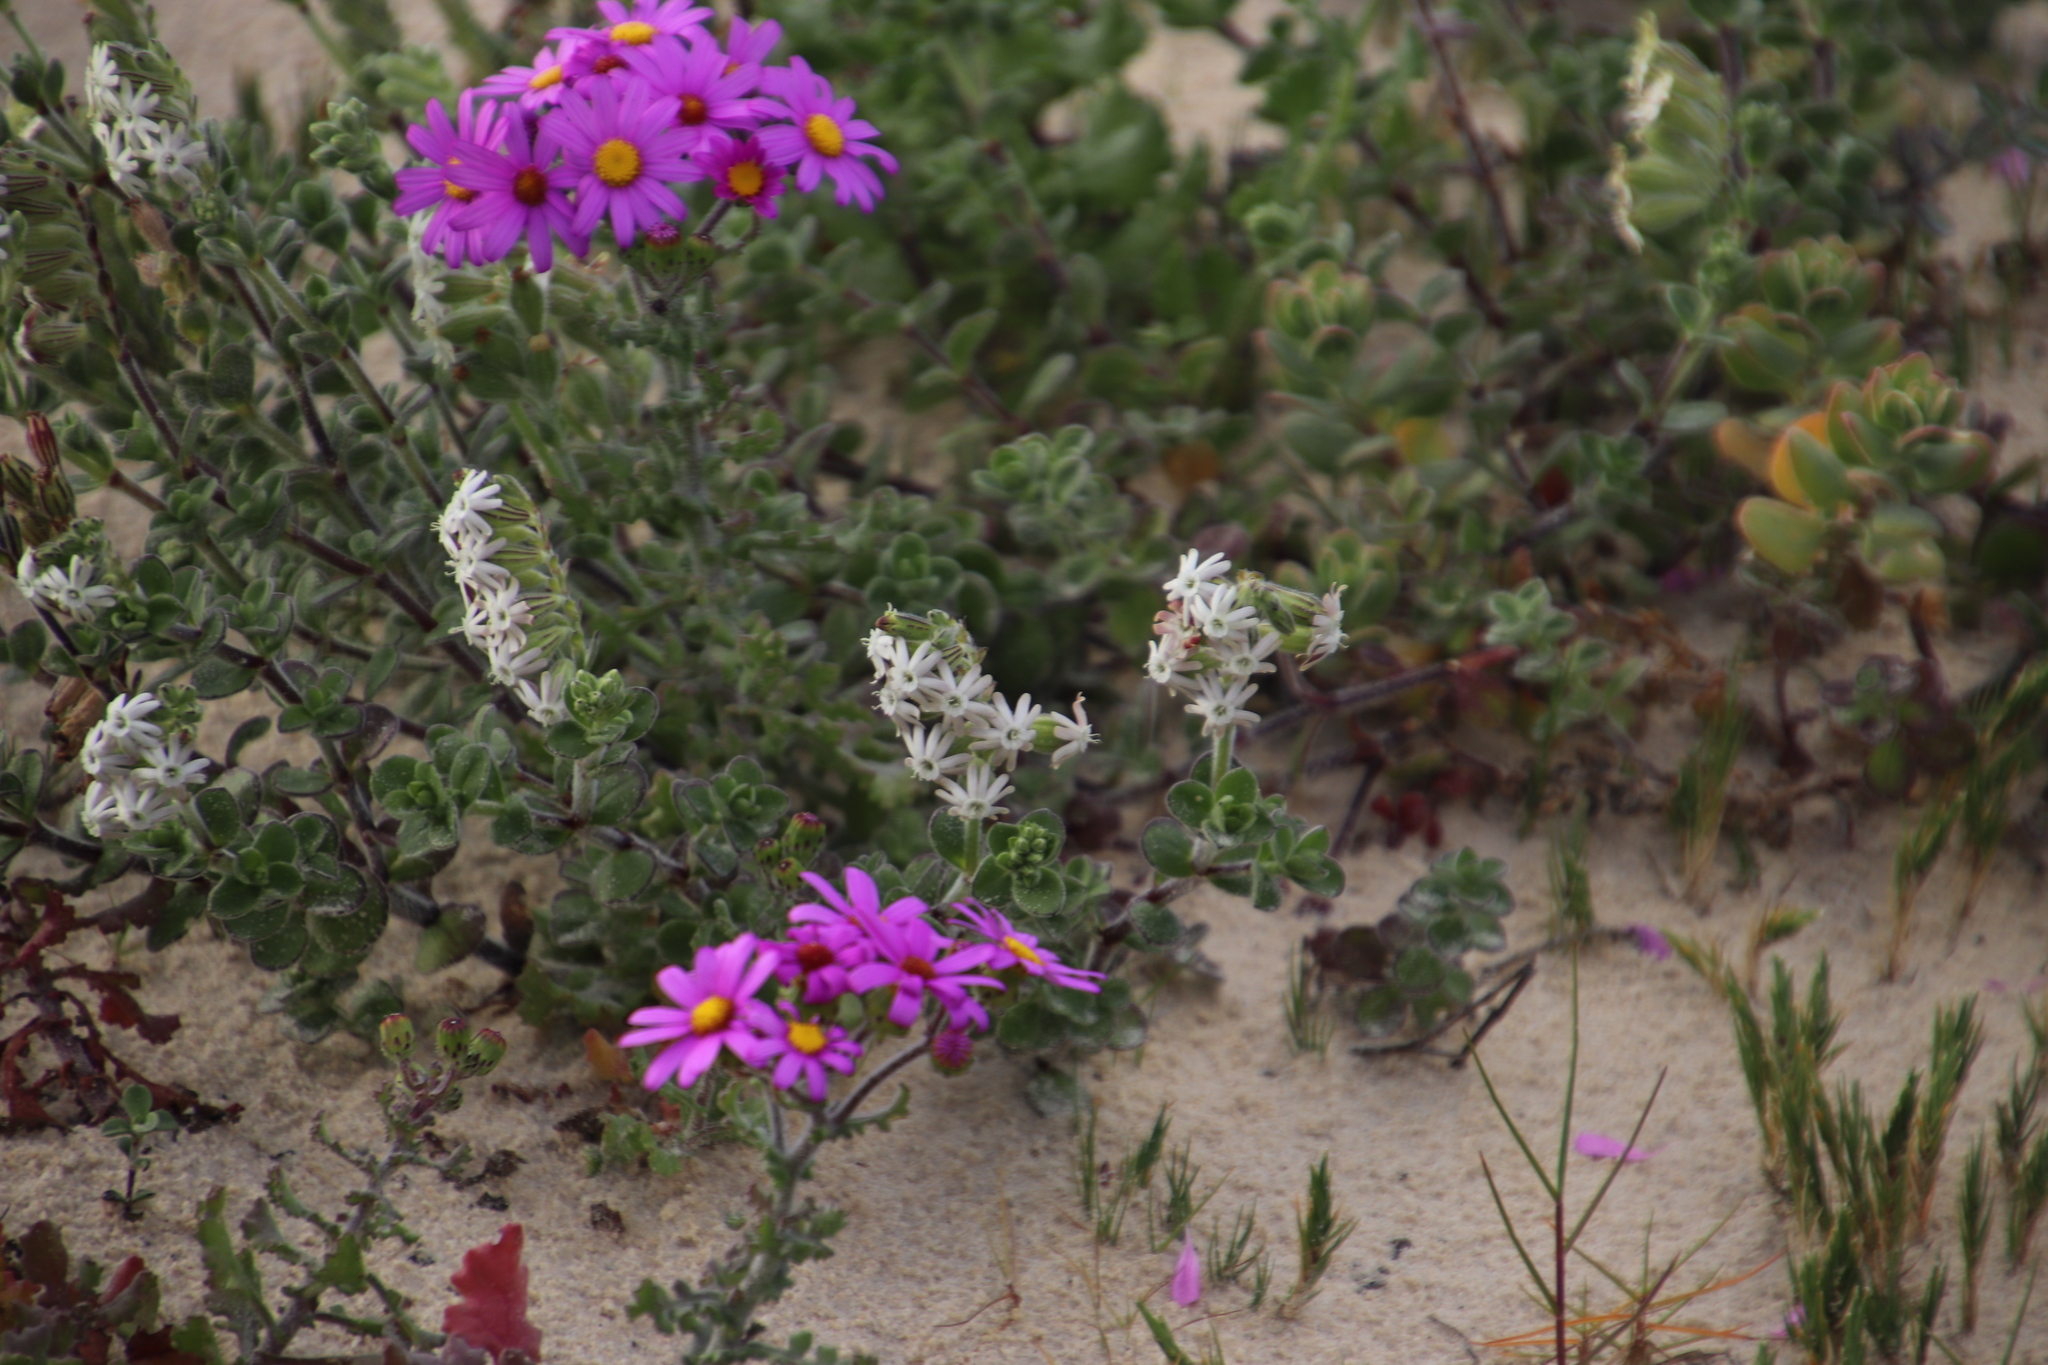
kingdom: Plantae
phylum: Tracheophyta
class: Magnoliopsida
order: Caryophyllales
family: Caryophyllaceae
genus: Silene
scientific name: Silene crassifolia
